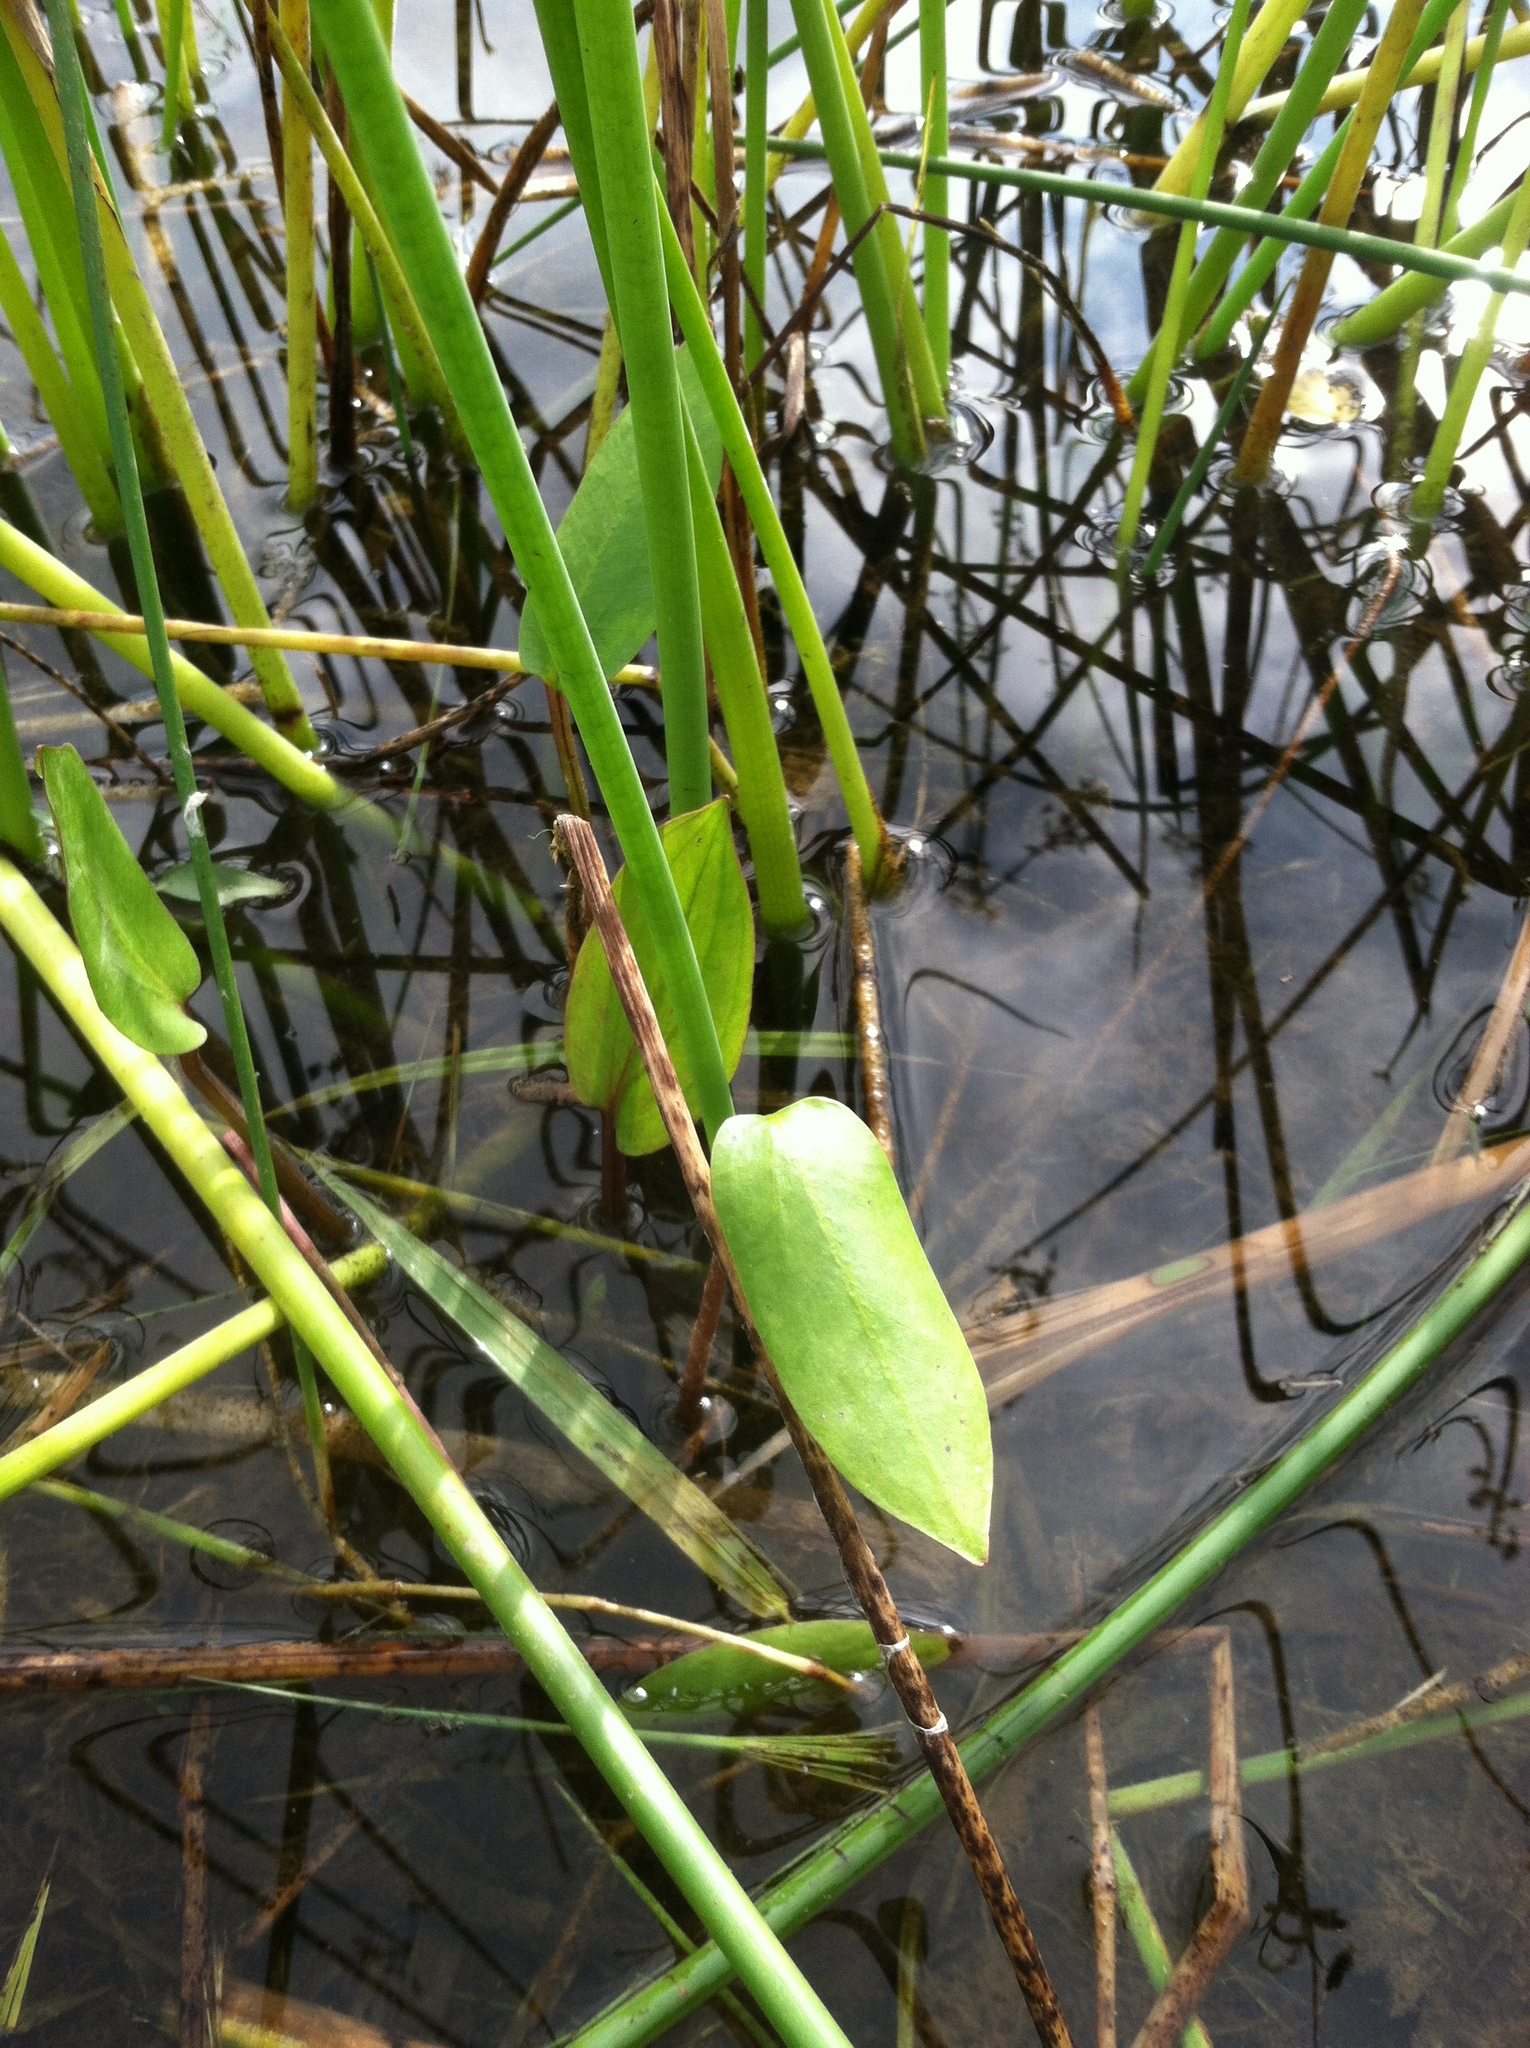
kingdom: Plantae
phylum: Tracheophyta
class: Liliopsida
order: Alismatales
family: Potamogetonaceae
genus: Potamogeton
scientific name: Potamogeton natans
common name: Broad-leaved pondweed
